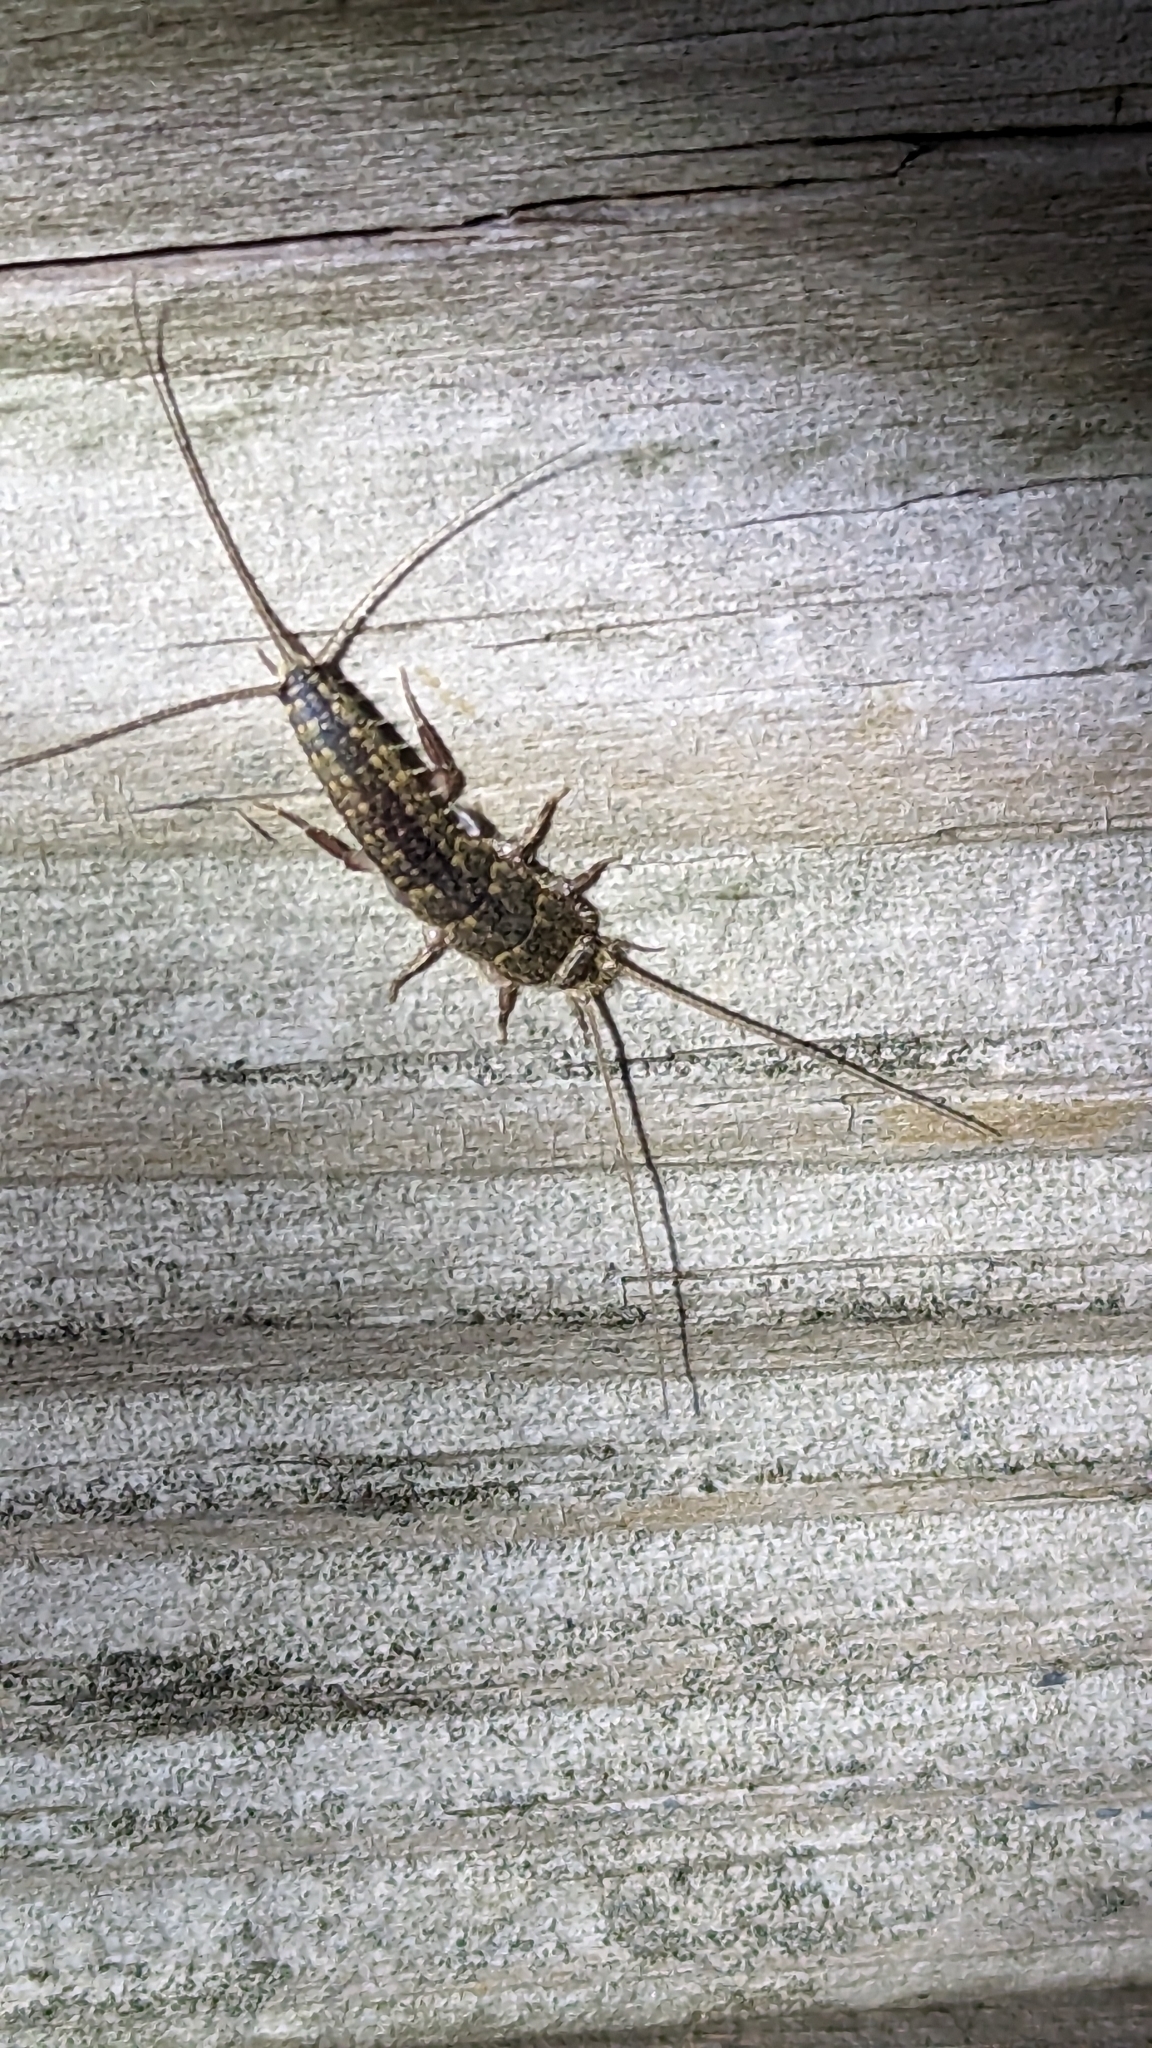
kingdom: Animalia
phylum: Arthropoda
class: Insecta
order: Zygentoma
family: Lepismatidae
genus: Ctenolepisma
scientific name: Ctenolepisma lineata
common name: Four-lined silverfish
